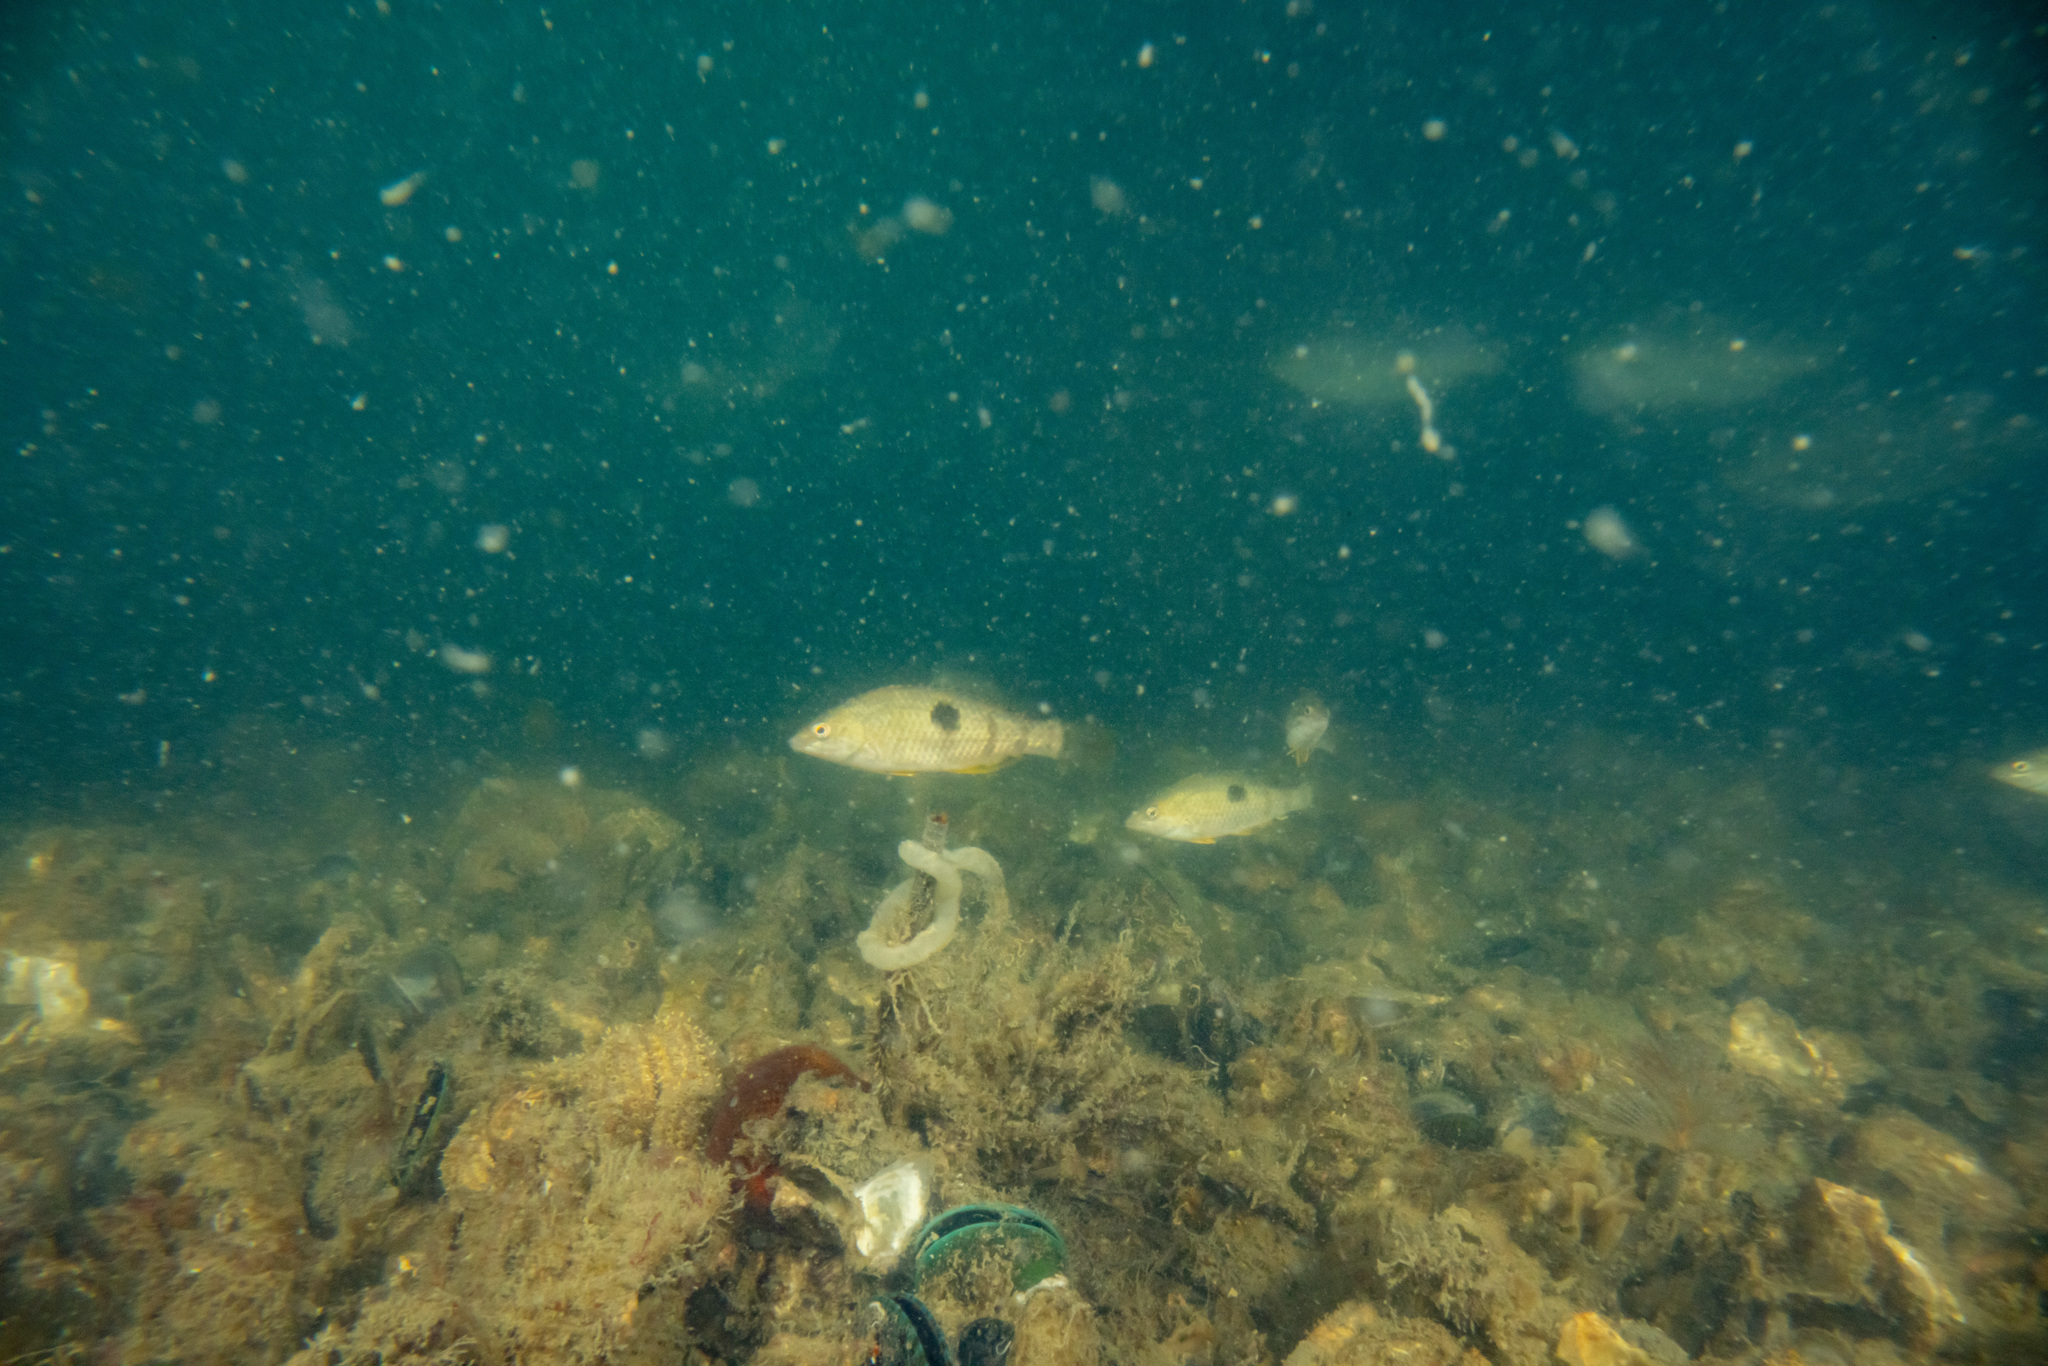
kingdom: Animalia
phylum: Chordata
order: Perciformes
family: Labridae
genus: Notolabrus
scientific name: Notolabrus celidotus
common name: Spotty
